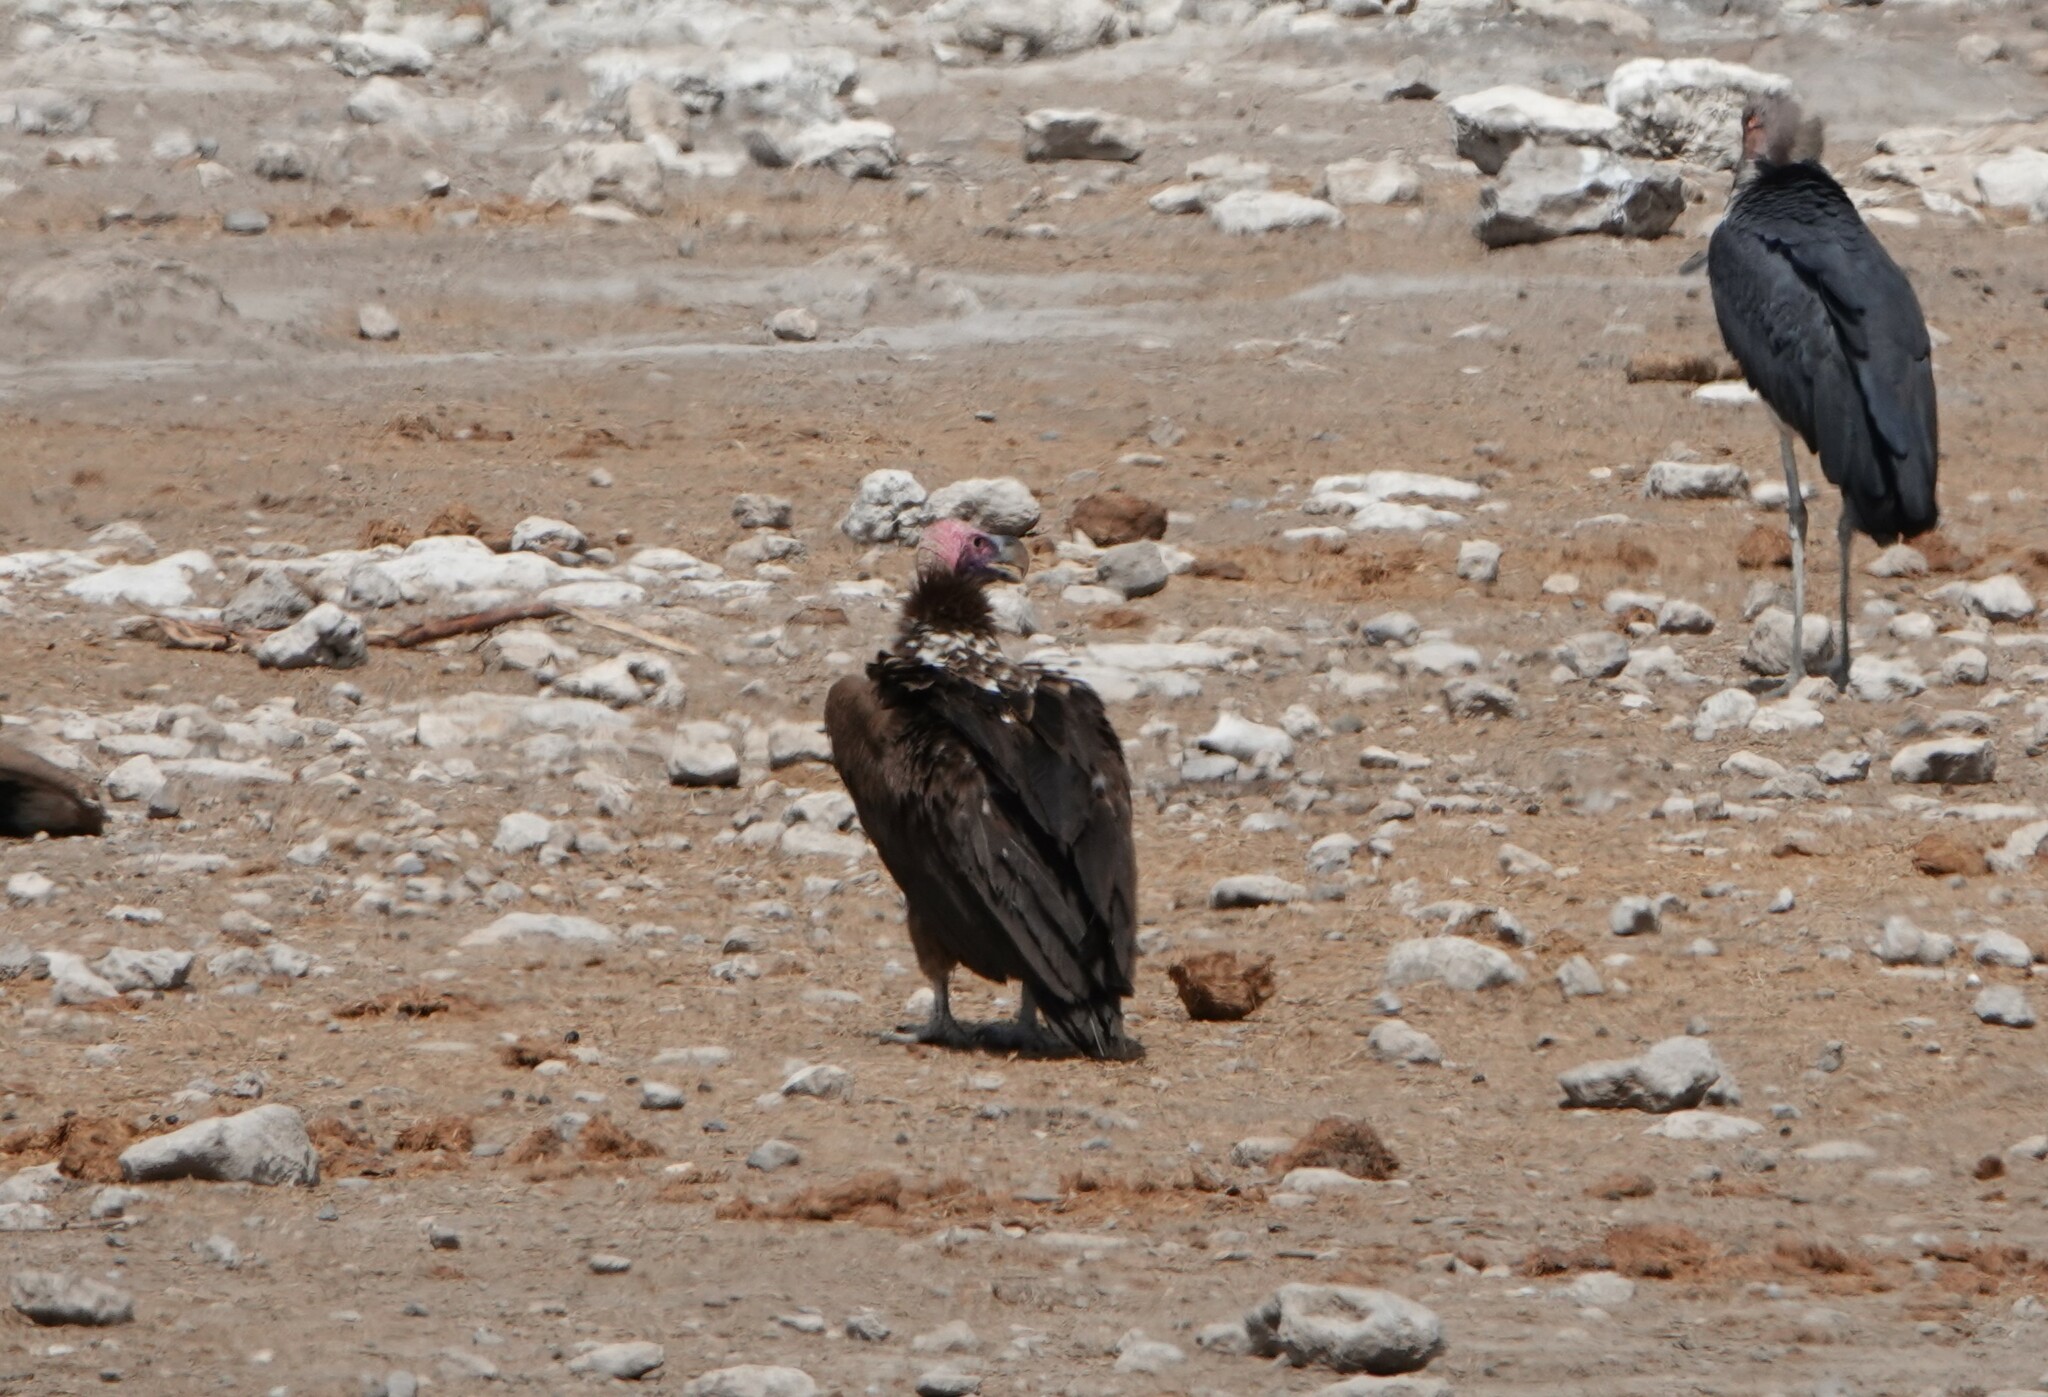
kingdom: Animalia
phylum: Chordata
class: Aves
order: Accipitriformes
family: Accipitridae
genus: Torgos
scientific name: Torgos tracheliotos
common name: Lappet-faced vulture
